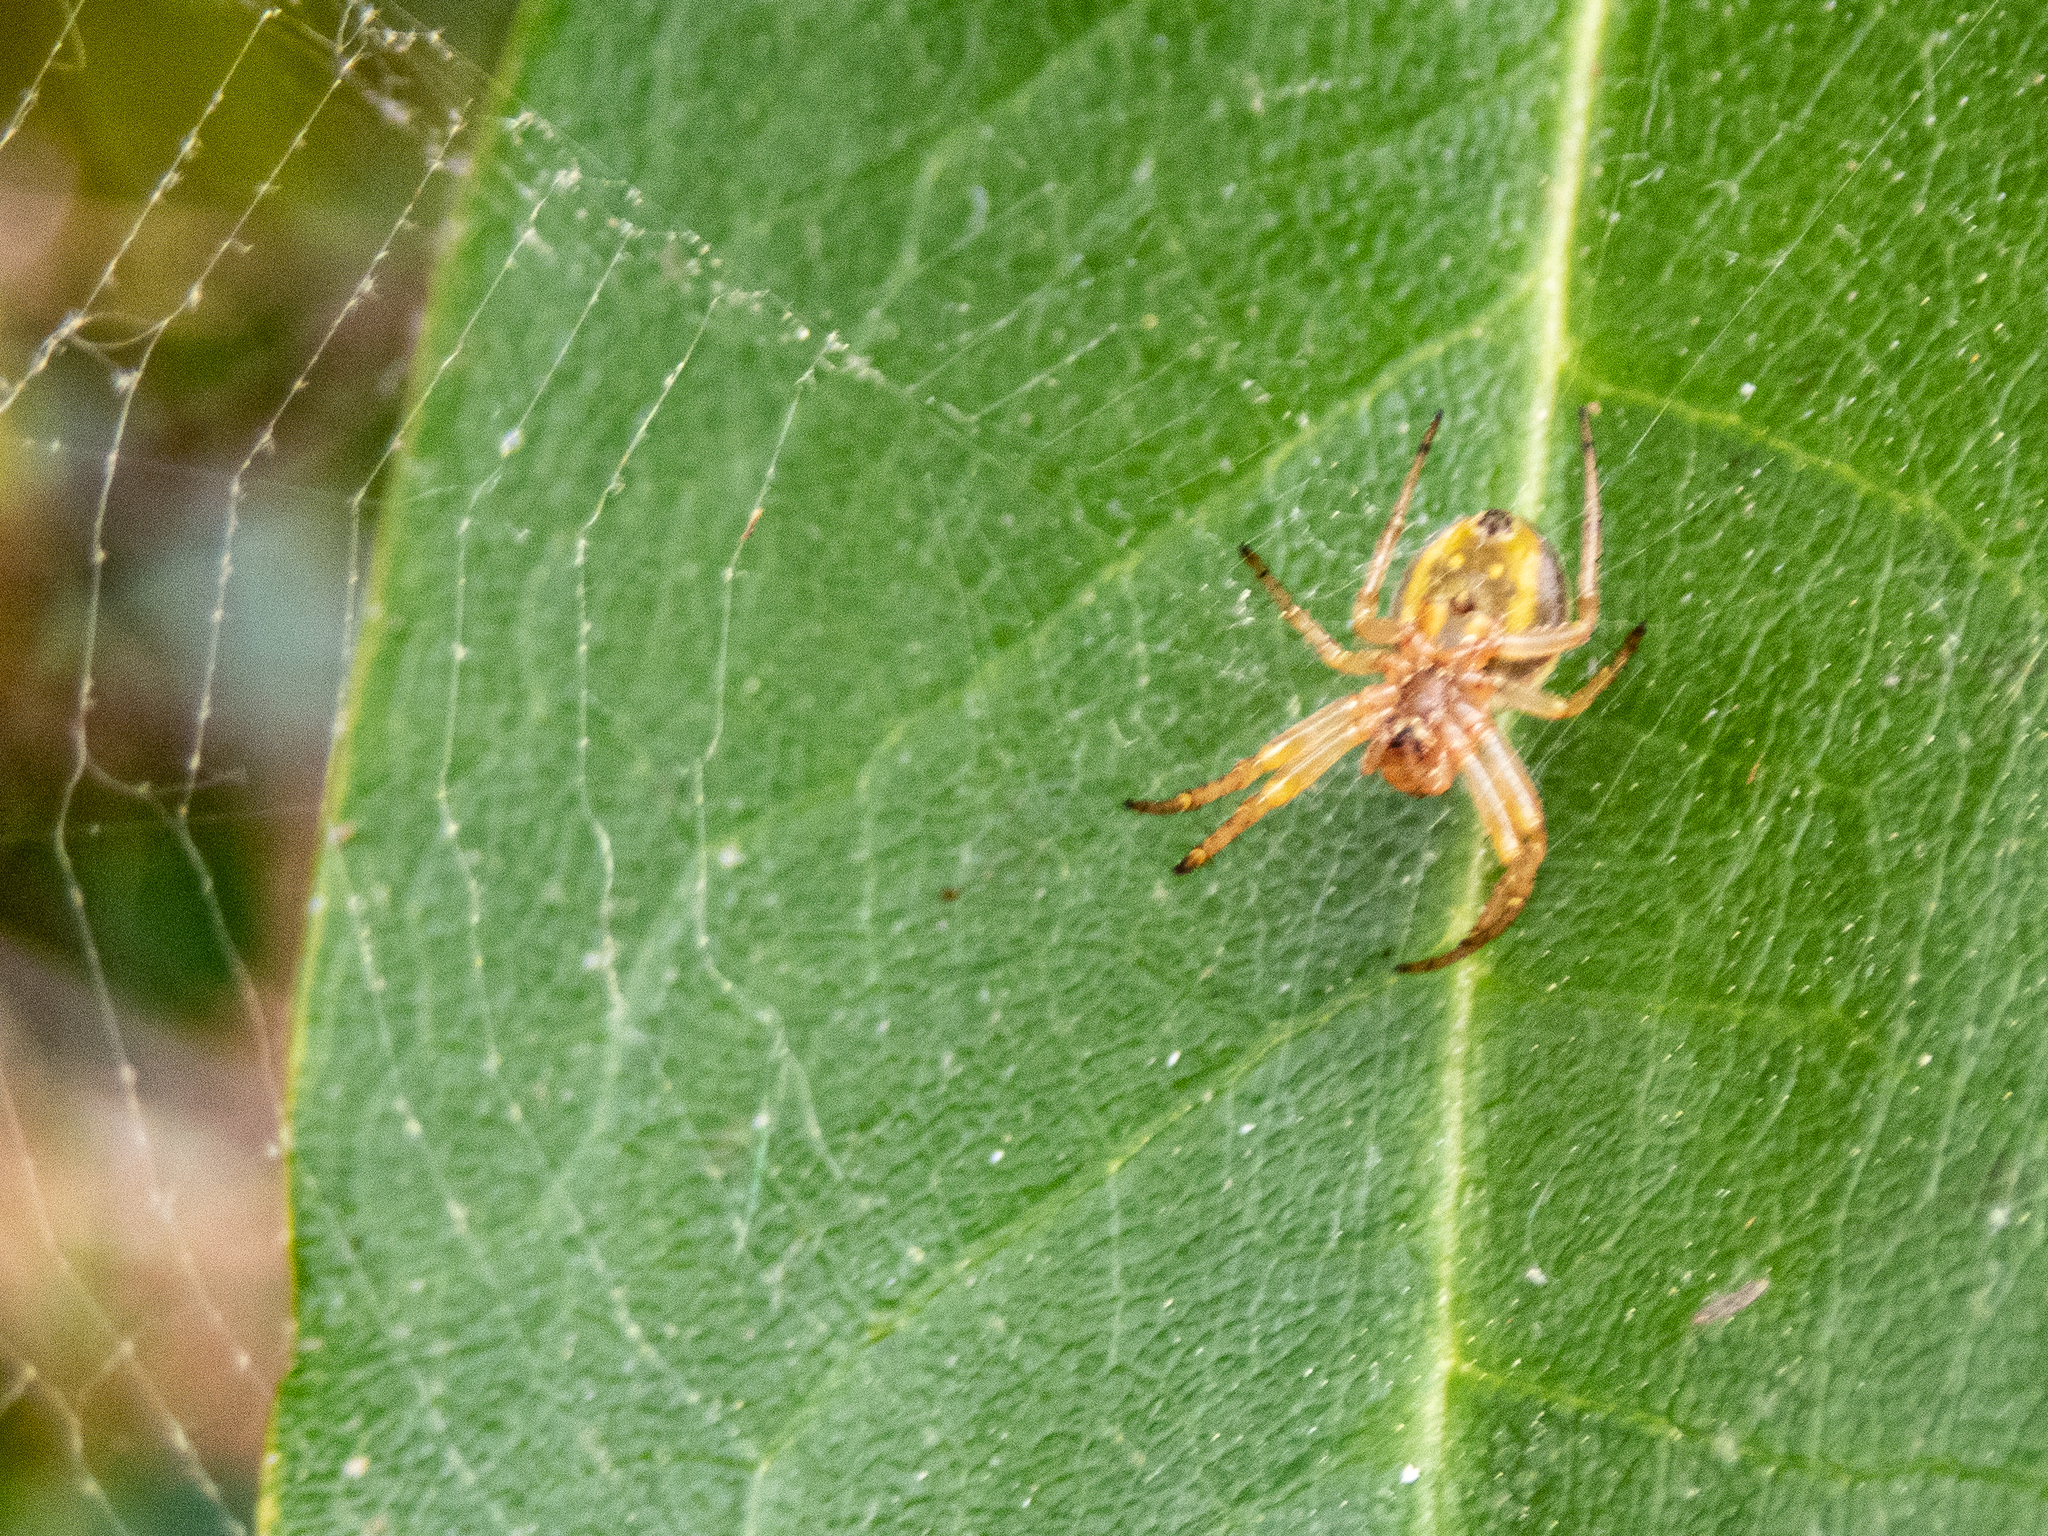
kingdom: Animalia
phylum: Arthropoda
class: Arachnida
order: Araneae
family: Araneidae
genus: Araniella
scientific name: Araniella displicata
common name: Sixspotted orb weaver
